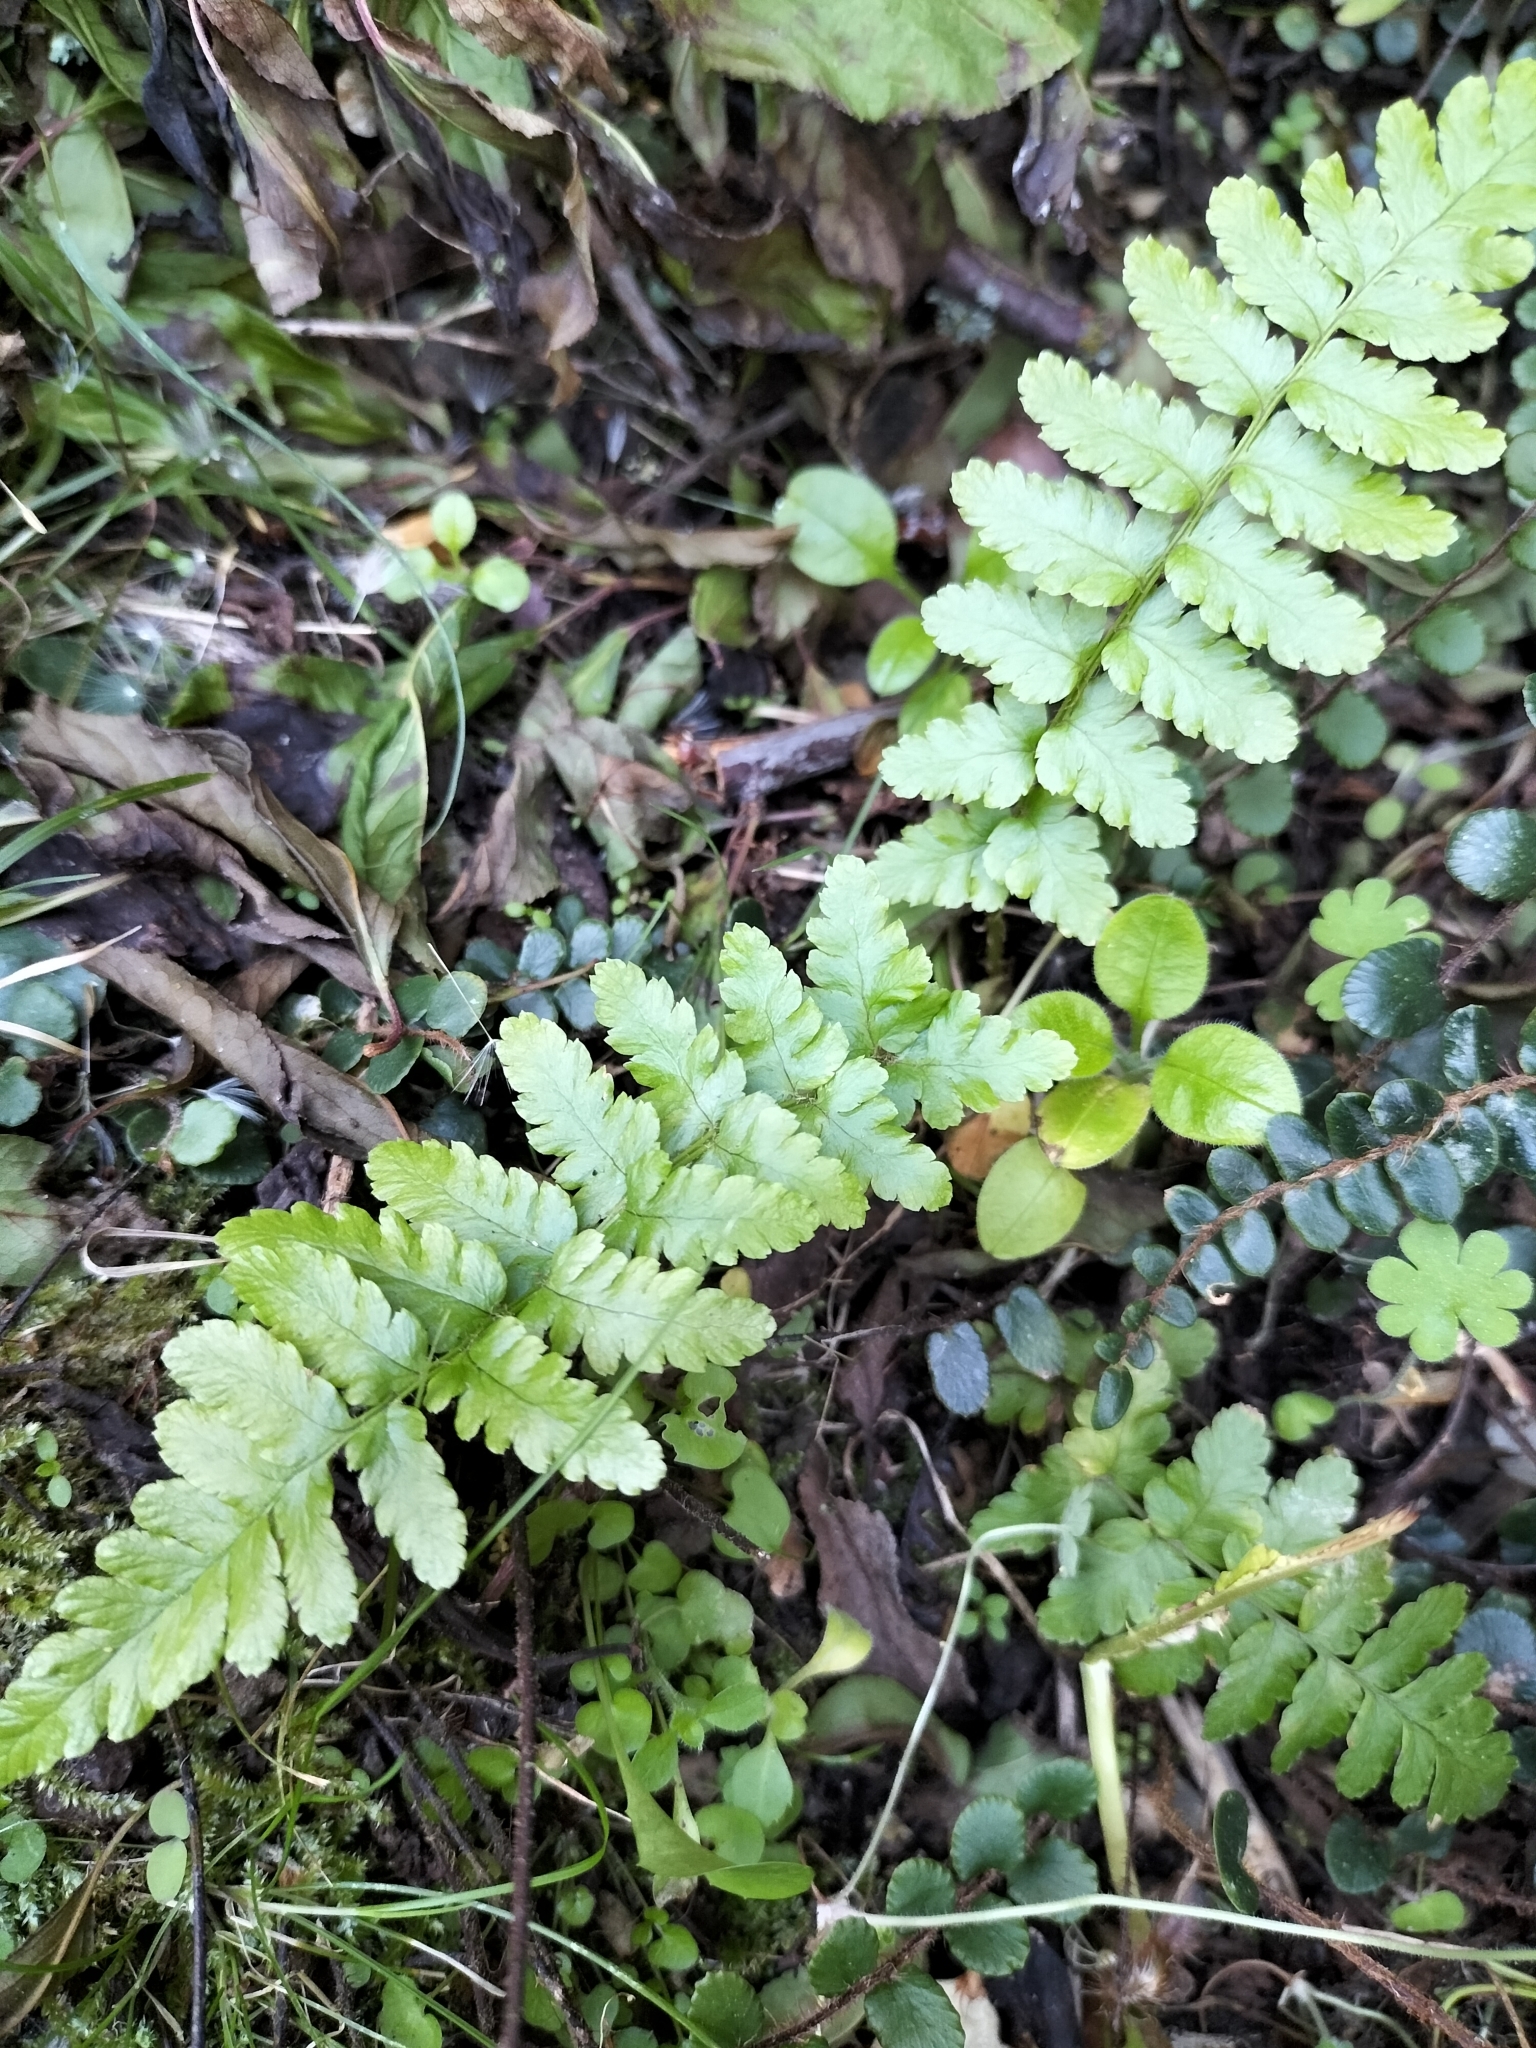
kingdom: Plantae
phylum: Tracheophyta
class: Polypodiopsida
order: Polypodiales
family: Dryopteridaceae
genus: Dryopteris
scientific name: Dryopteris filix-mas
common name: Male fern
